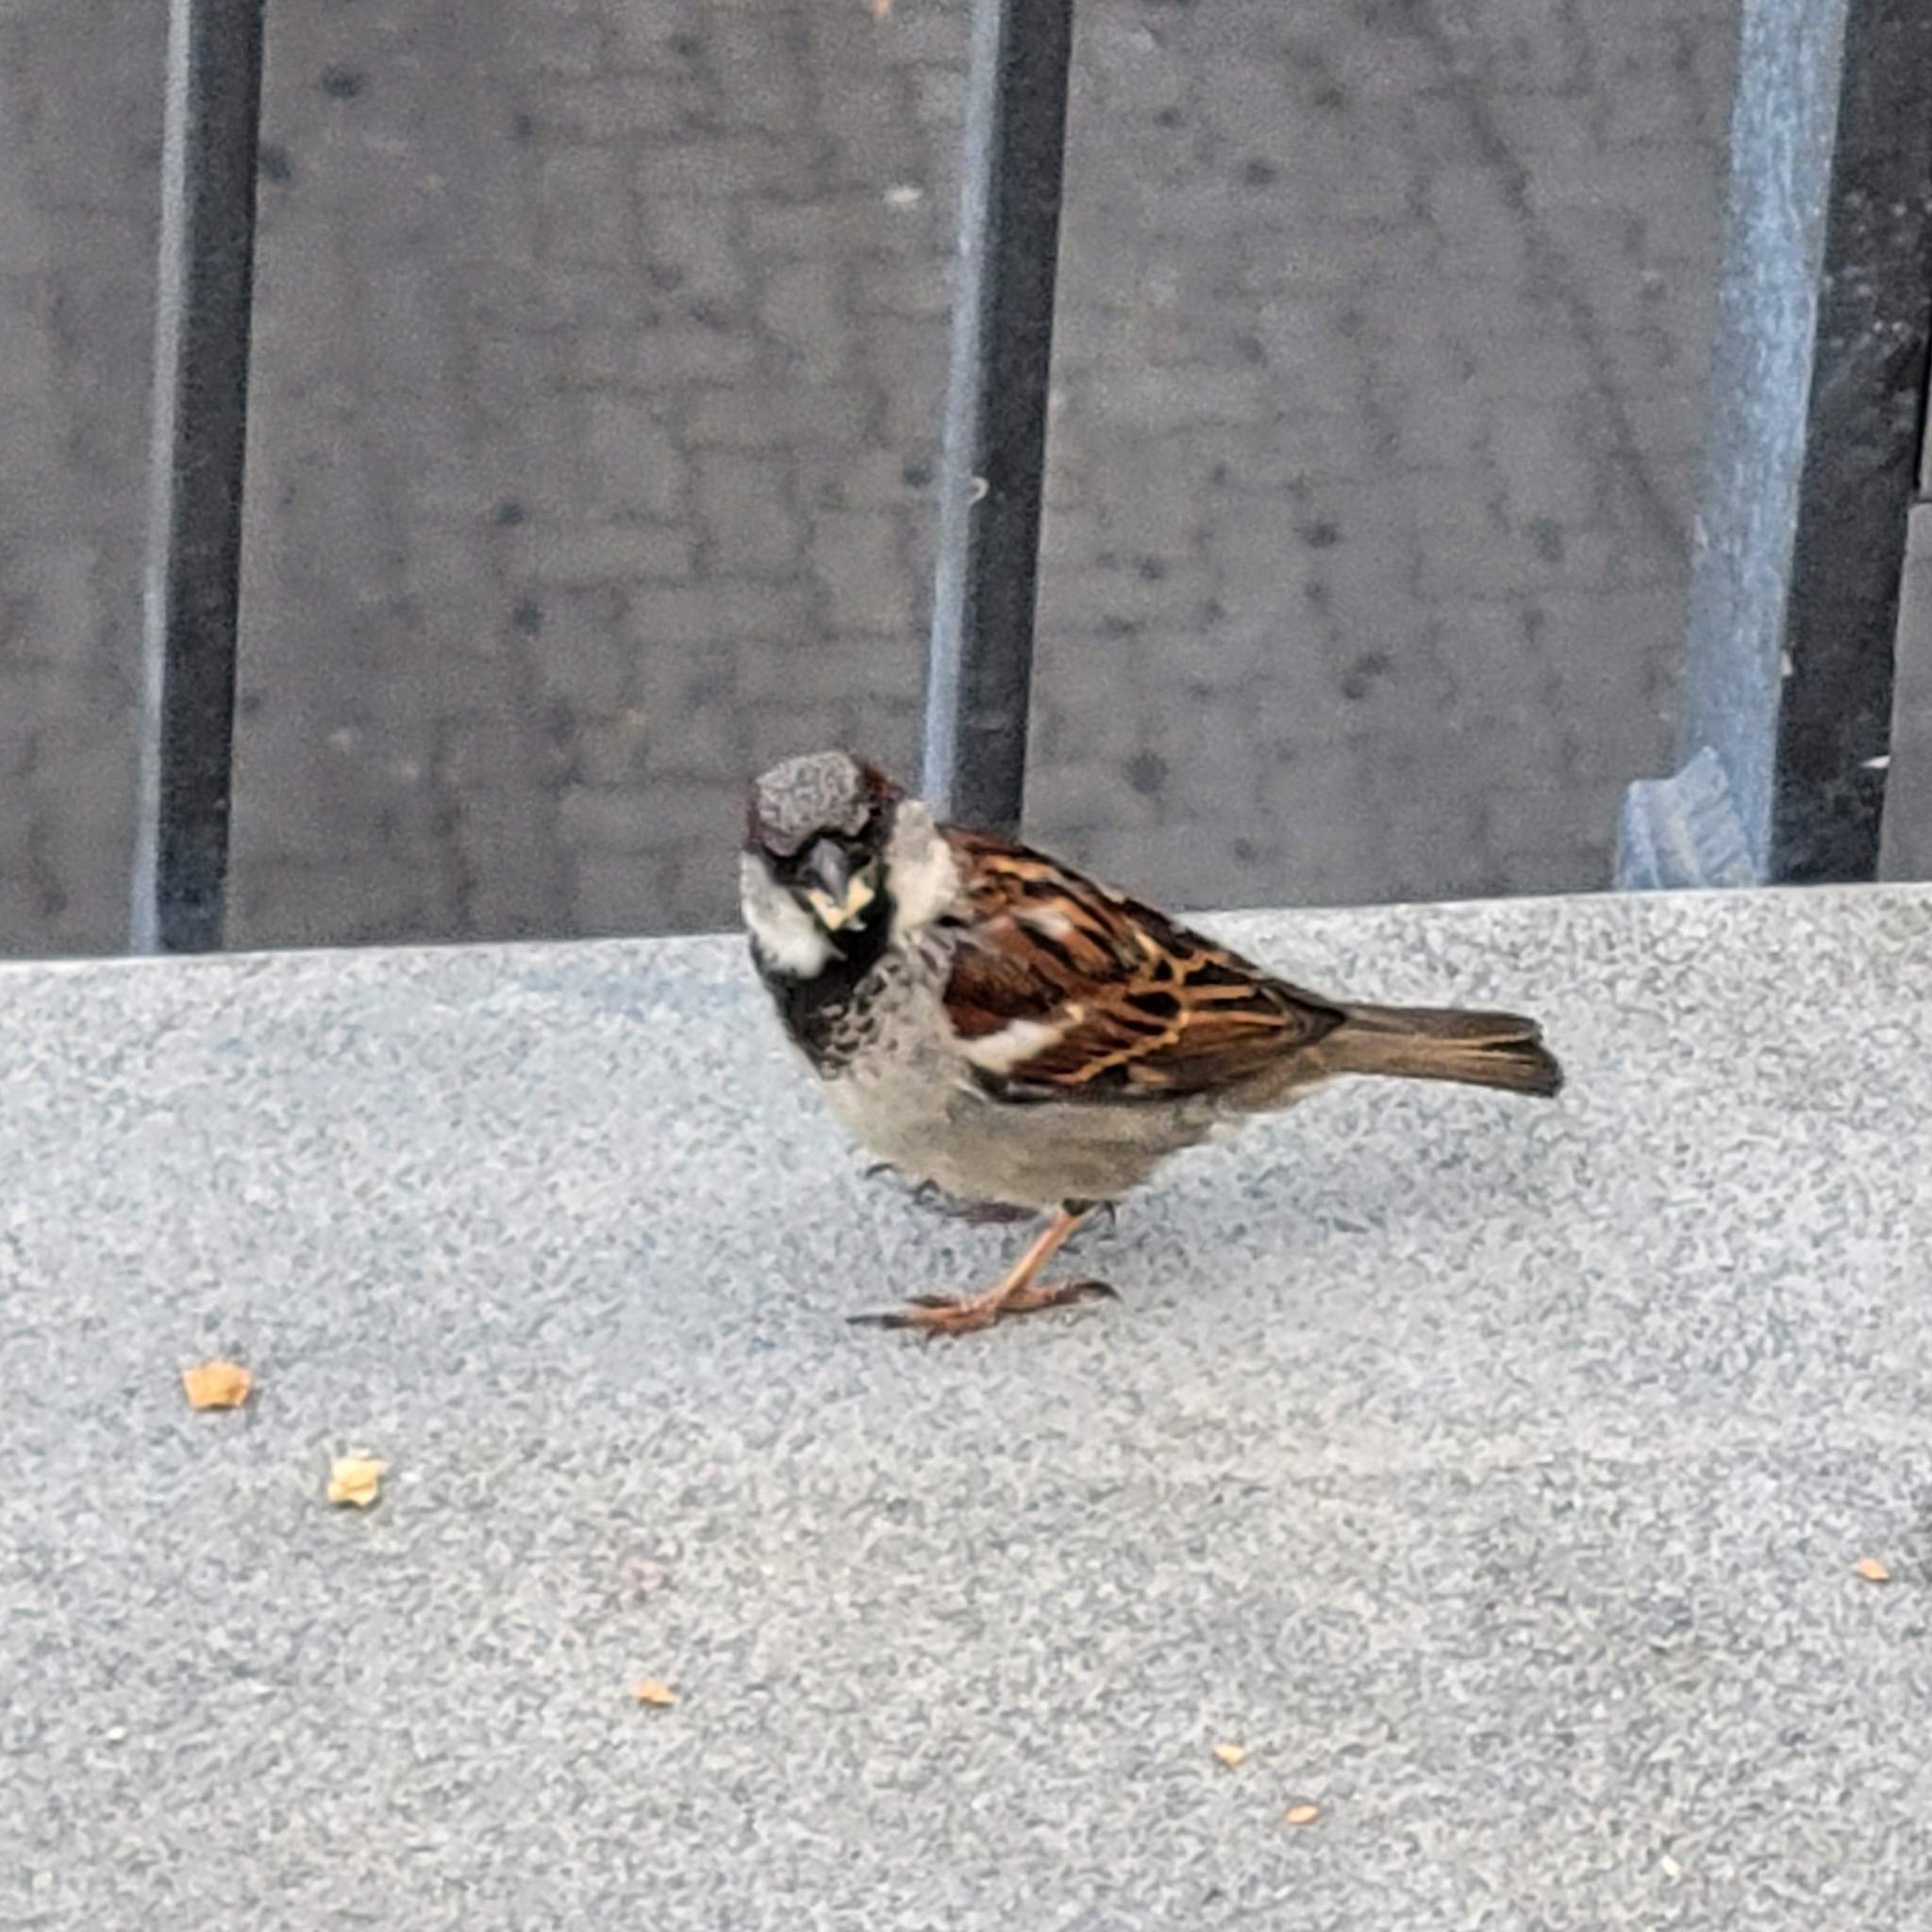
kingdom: Animalia
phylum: Chordata
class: Aves
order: Passeriformes
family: Passeridae
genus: Passer
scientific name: Passer domesticus
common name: House sparrow
